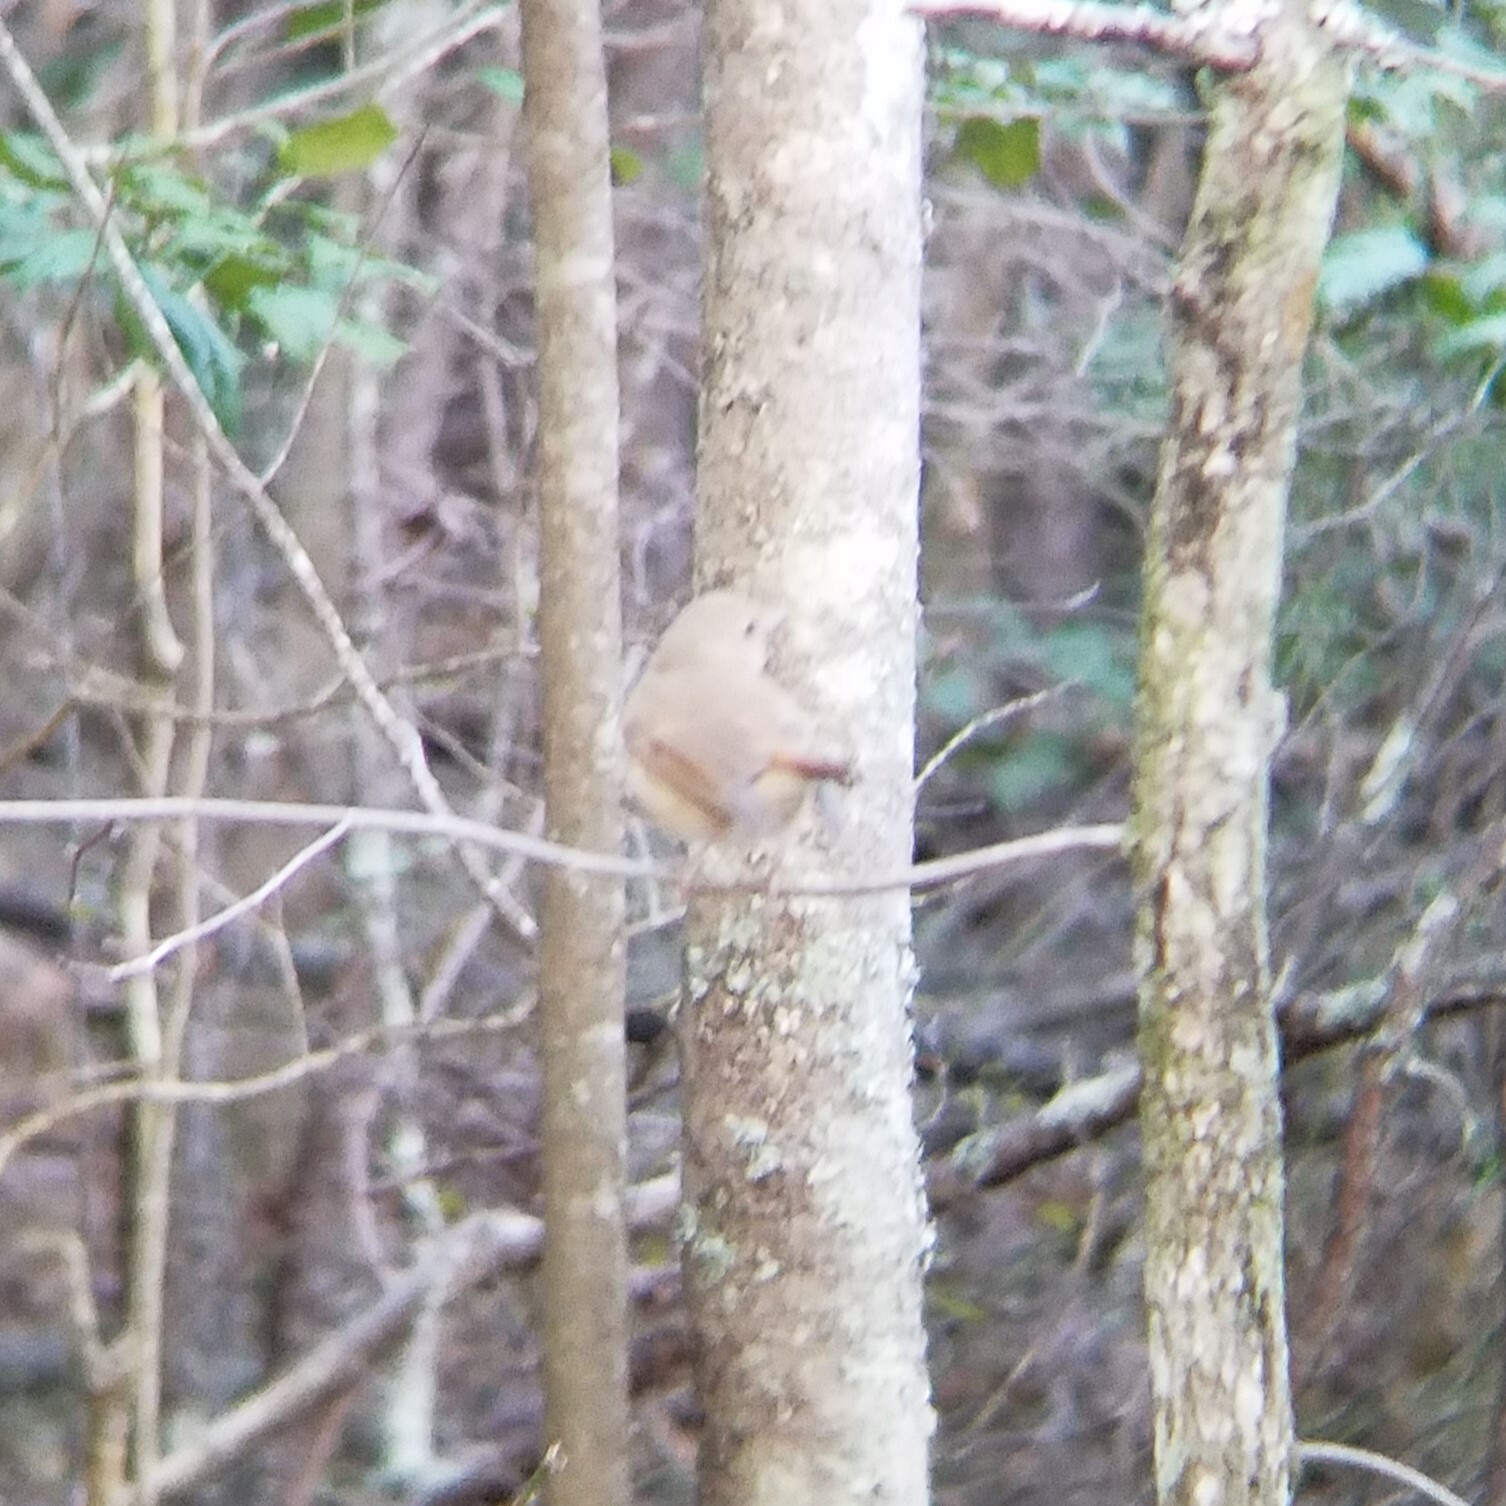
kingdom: Animalia
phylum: Chordata
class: Aves
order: Passeriformes
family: Turdidae
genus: Catharus
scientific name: Catharus guttatus
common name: Hermit thrush
